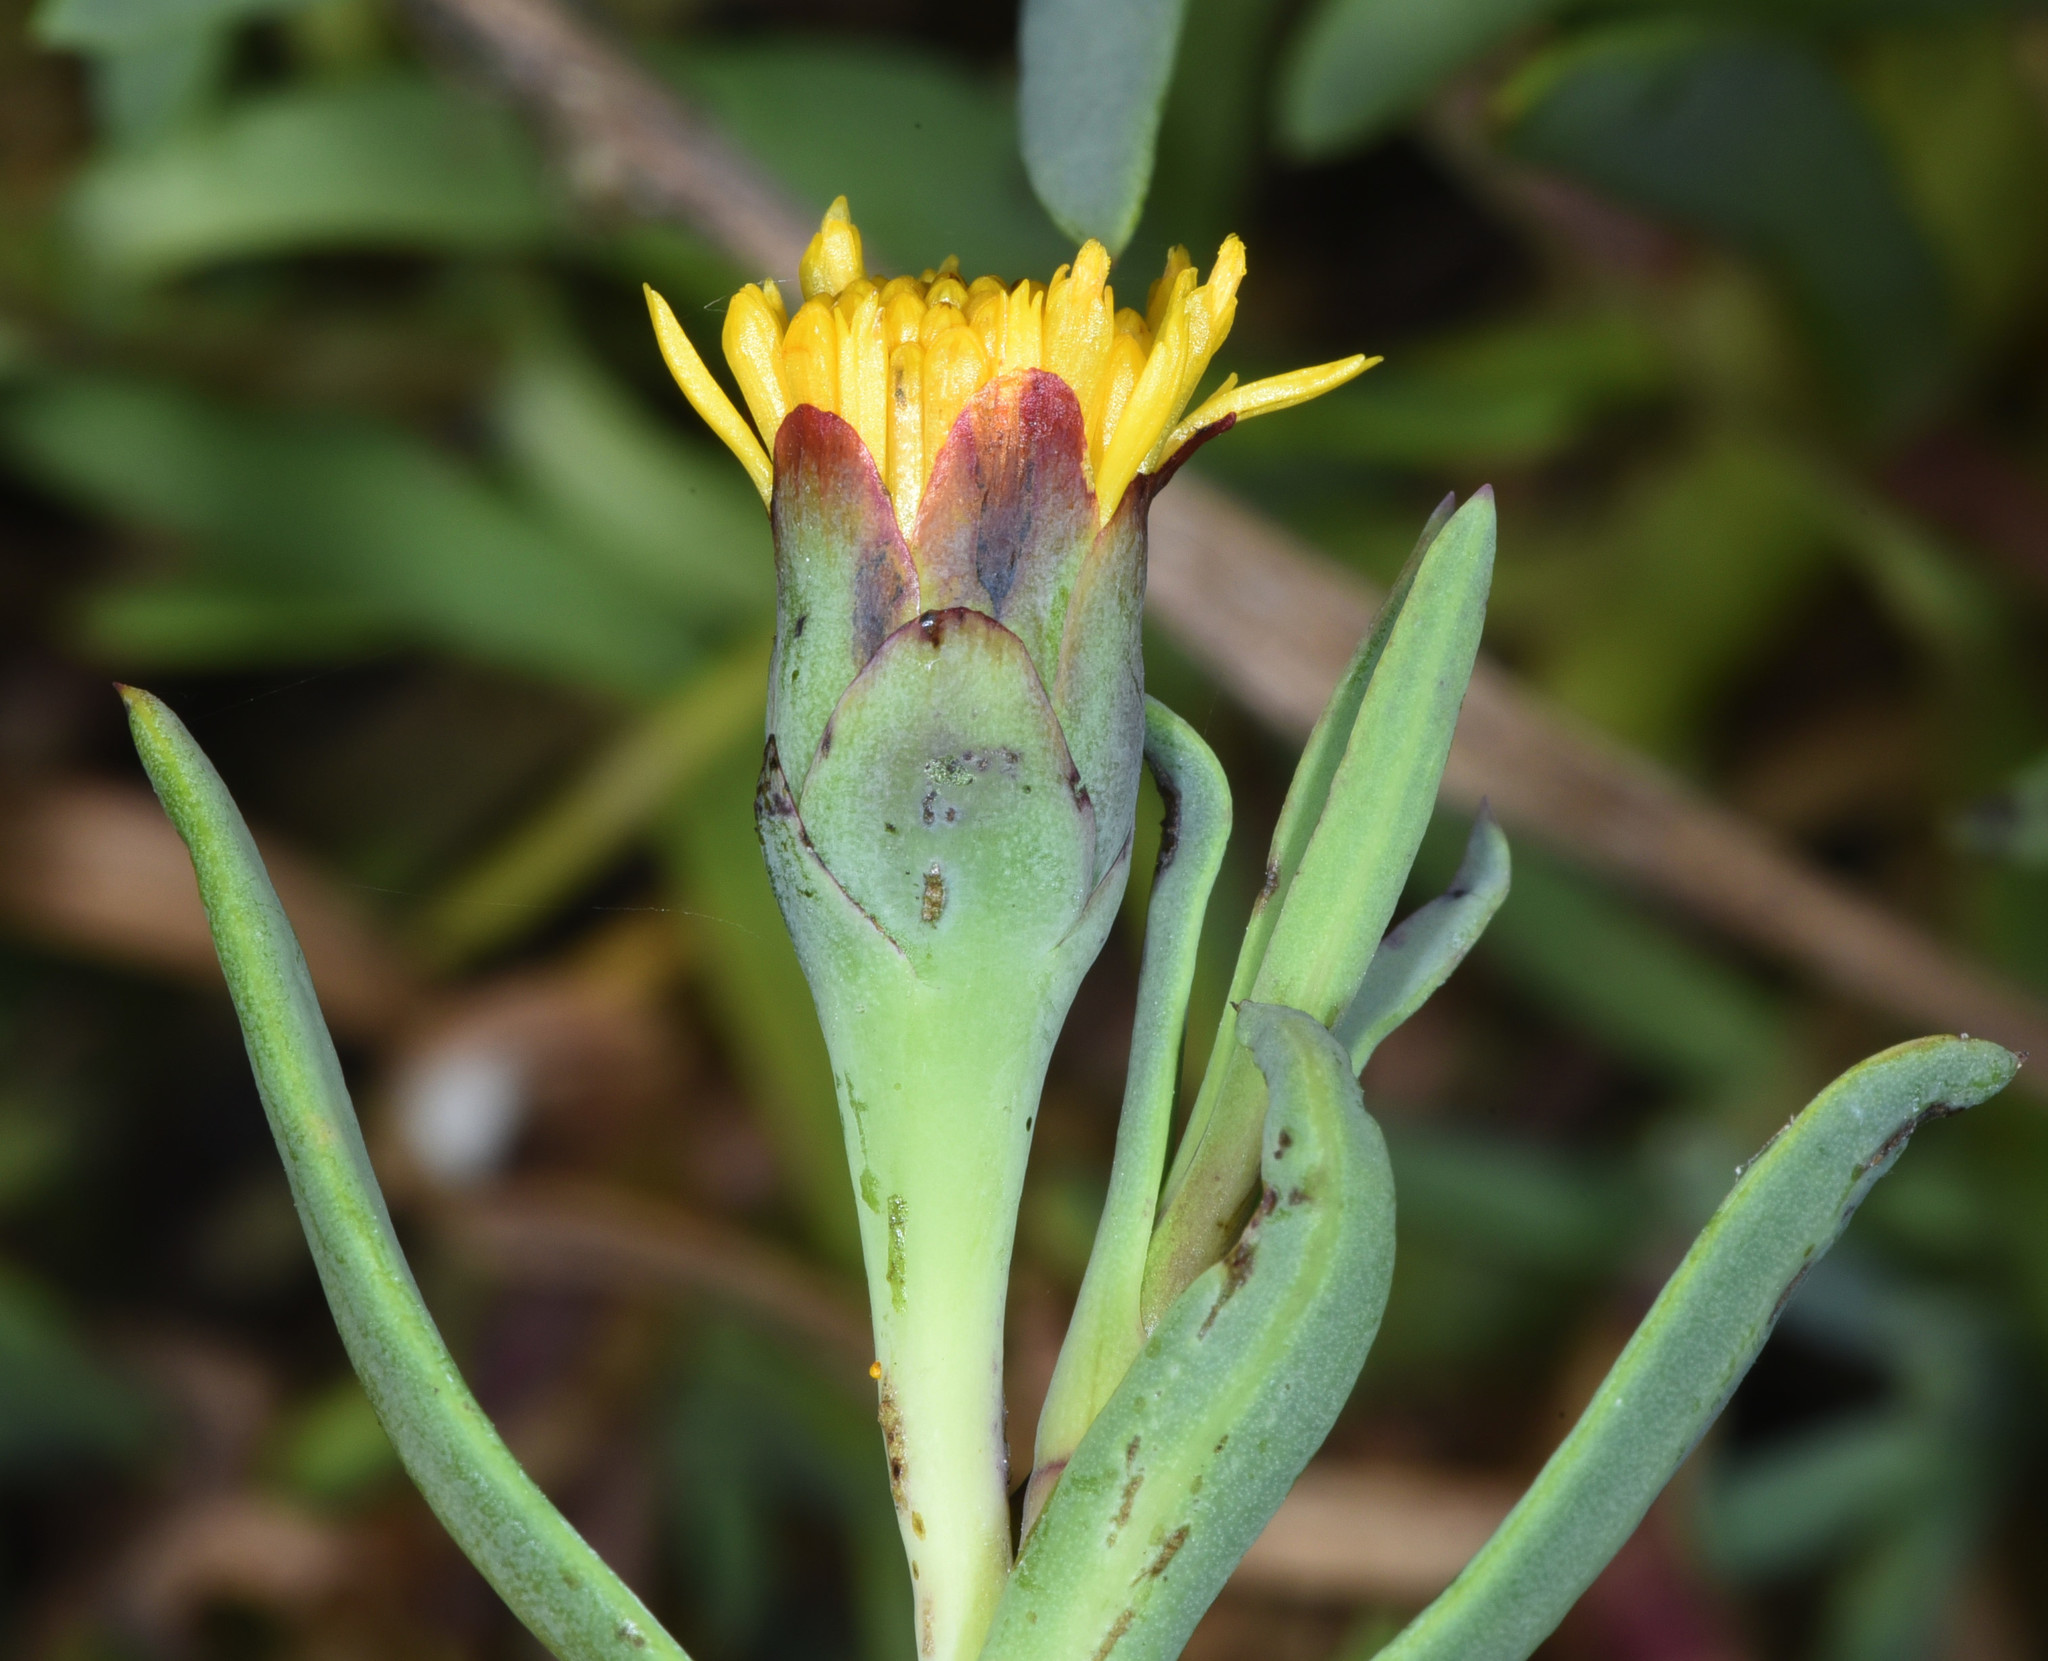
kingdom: Plantae
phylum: Tracheophyta
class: Magnoliopsida
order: Asterales
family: Asteraceae
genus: Jaumea
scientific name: Jaumea carnosa
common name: Fleshy jaumea
